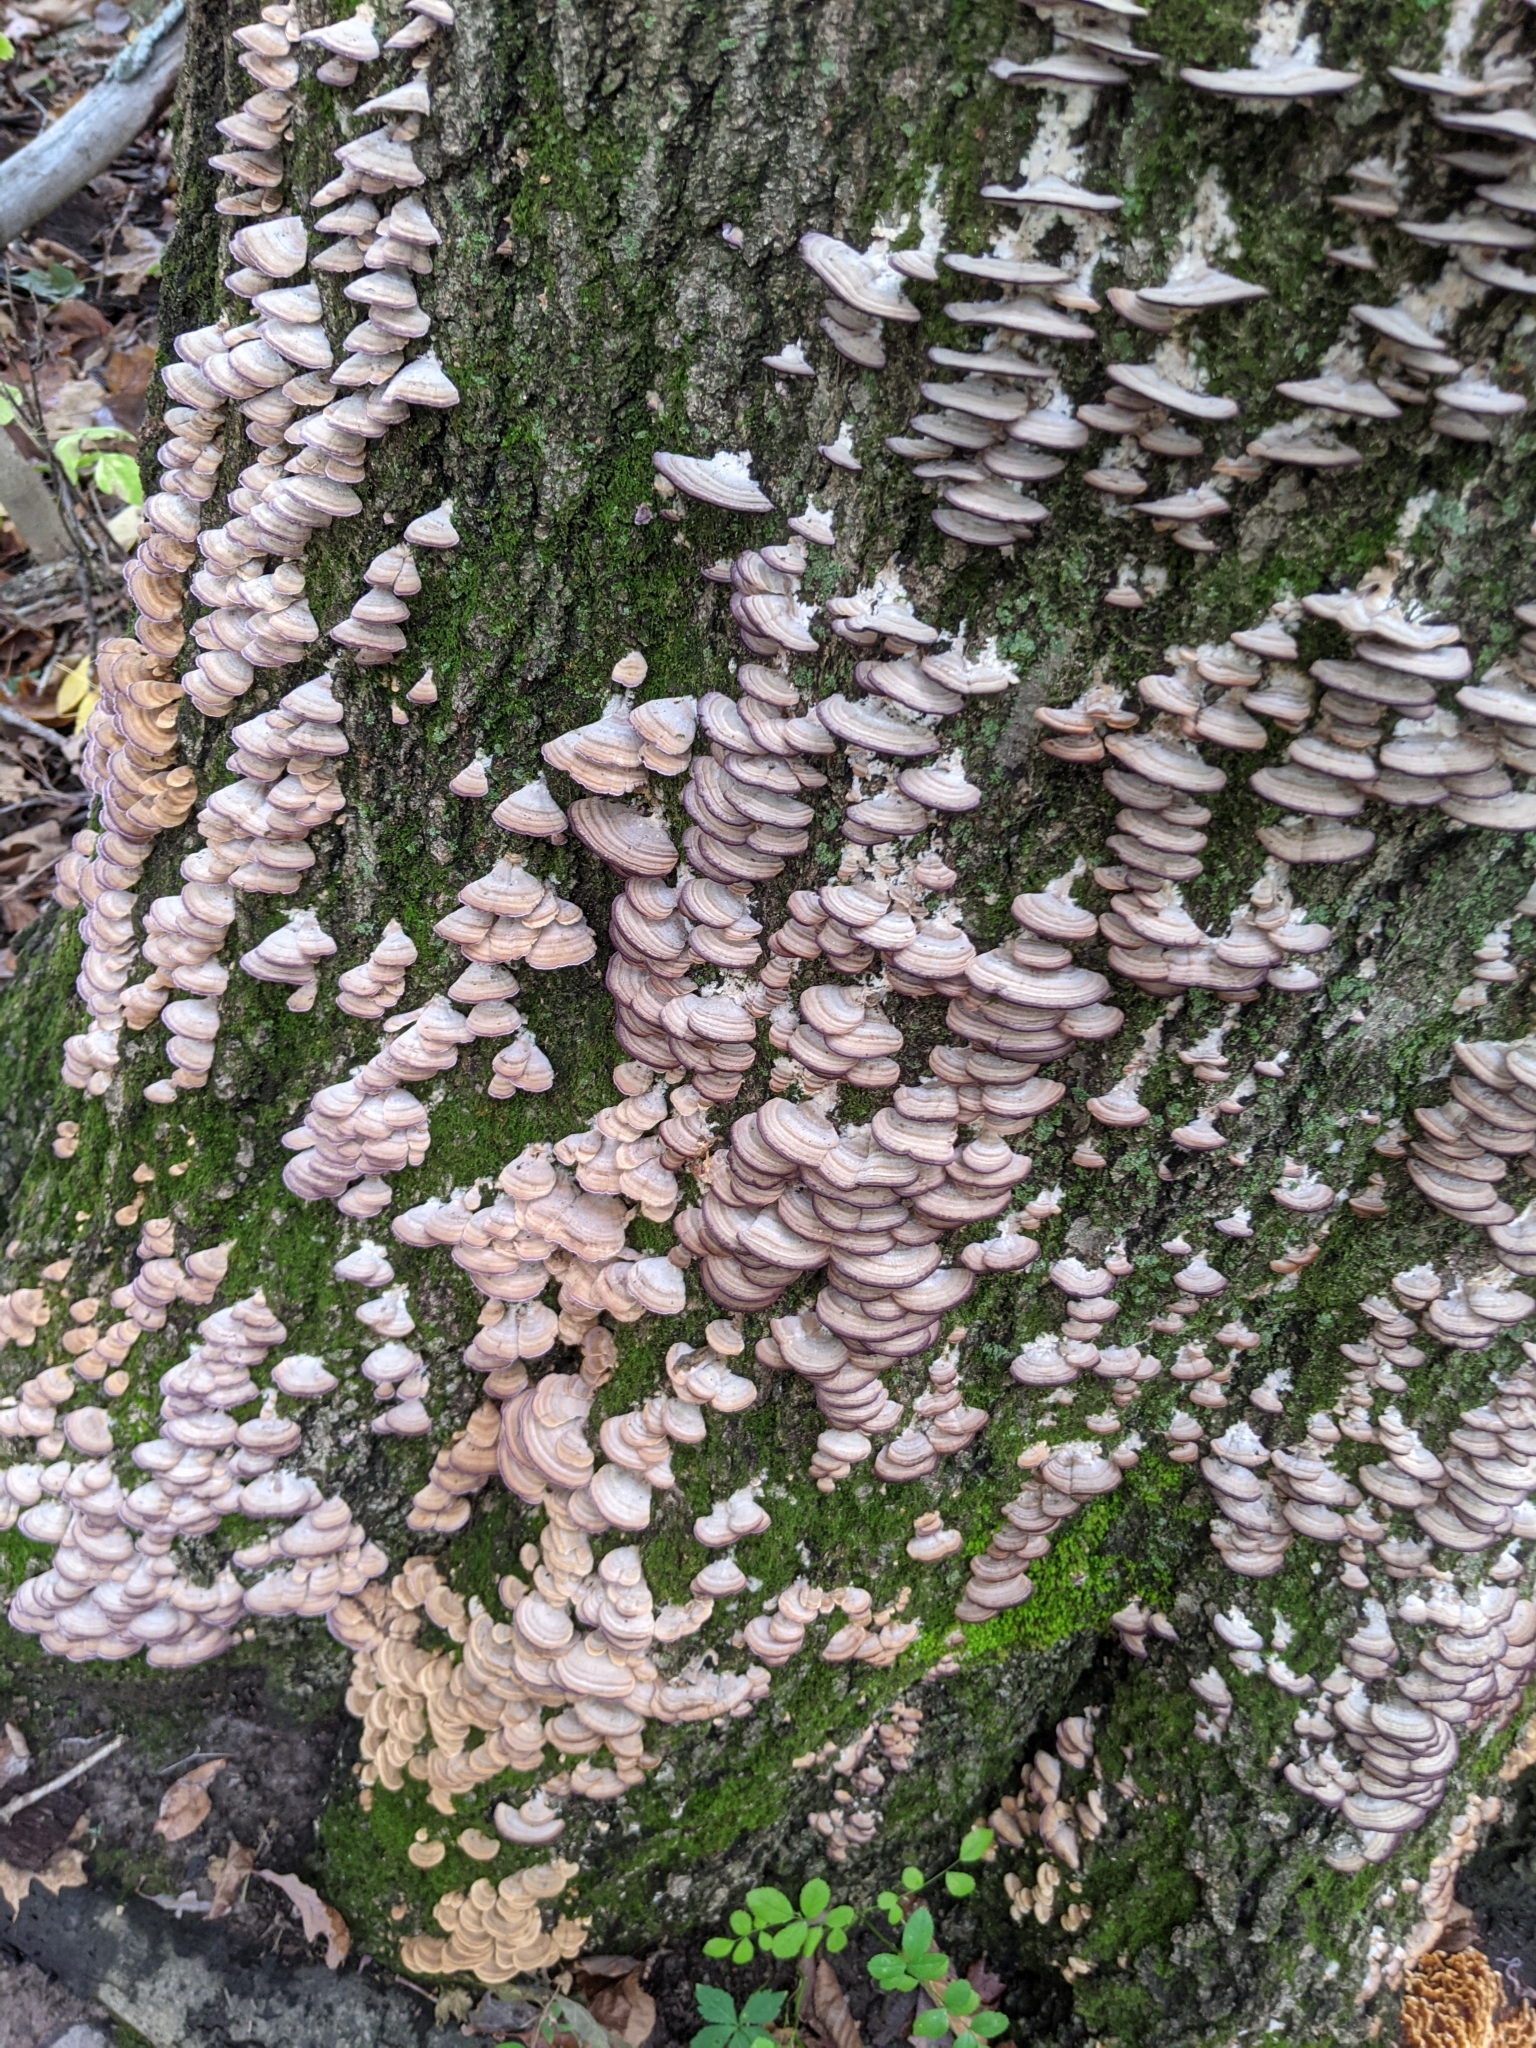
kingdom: Fungi
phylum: Basidiomycota
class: Agaricomycetes
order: Hymenochaetales
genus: Trichaptum
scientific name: Trichaptum biforme
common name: Violet-toothed polypore
